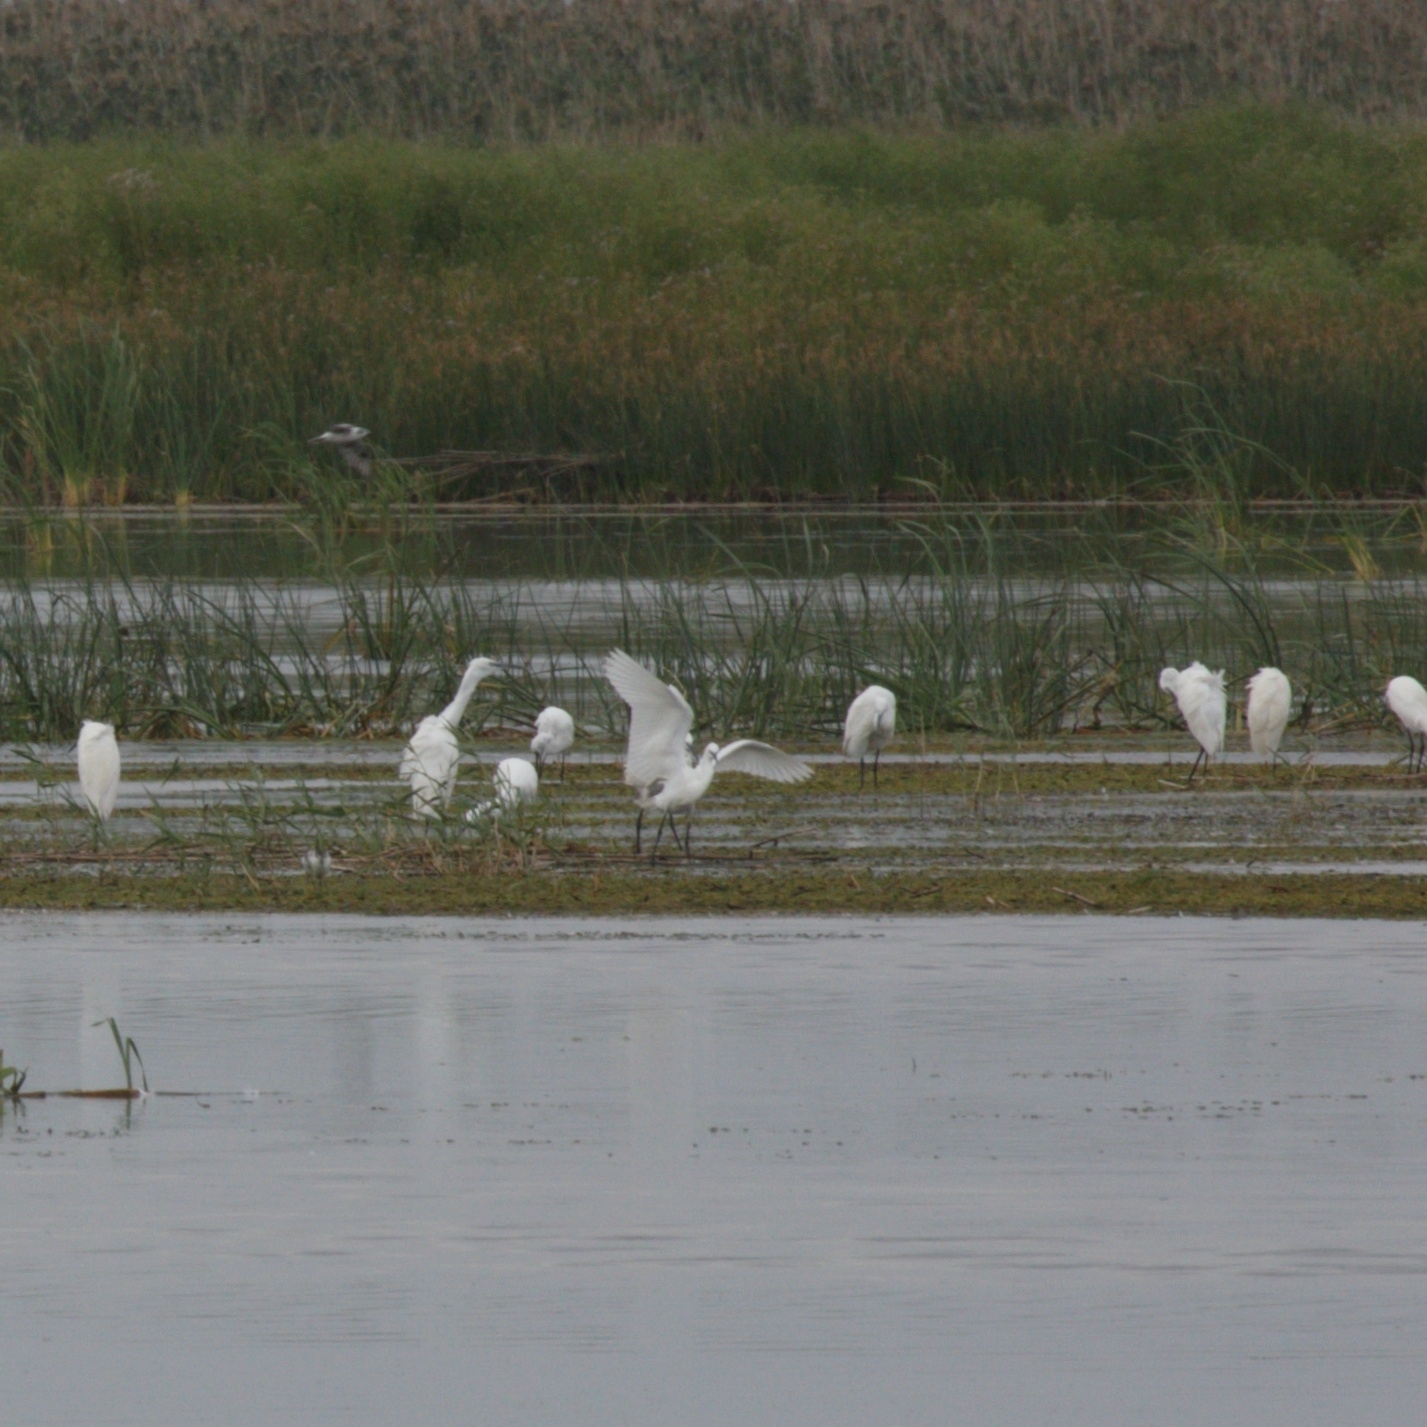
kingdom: Animalia
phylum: Chordata
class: Aves
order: Pelecaniformes
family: Ardeidae
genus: Egretta
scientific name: Egretta garzetta
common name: Little egret
